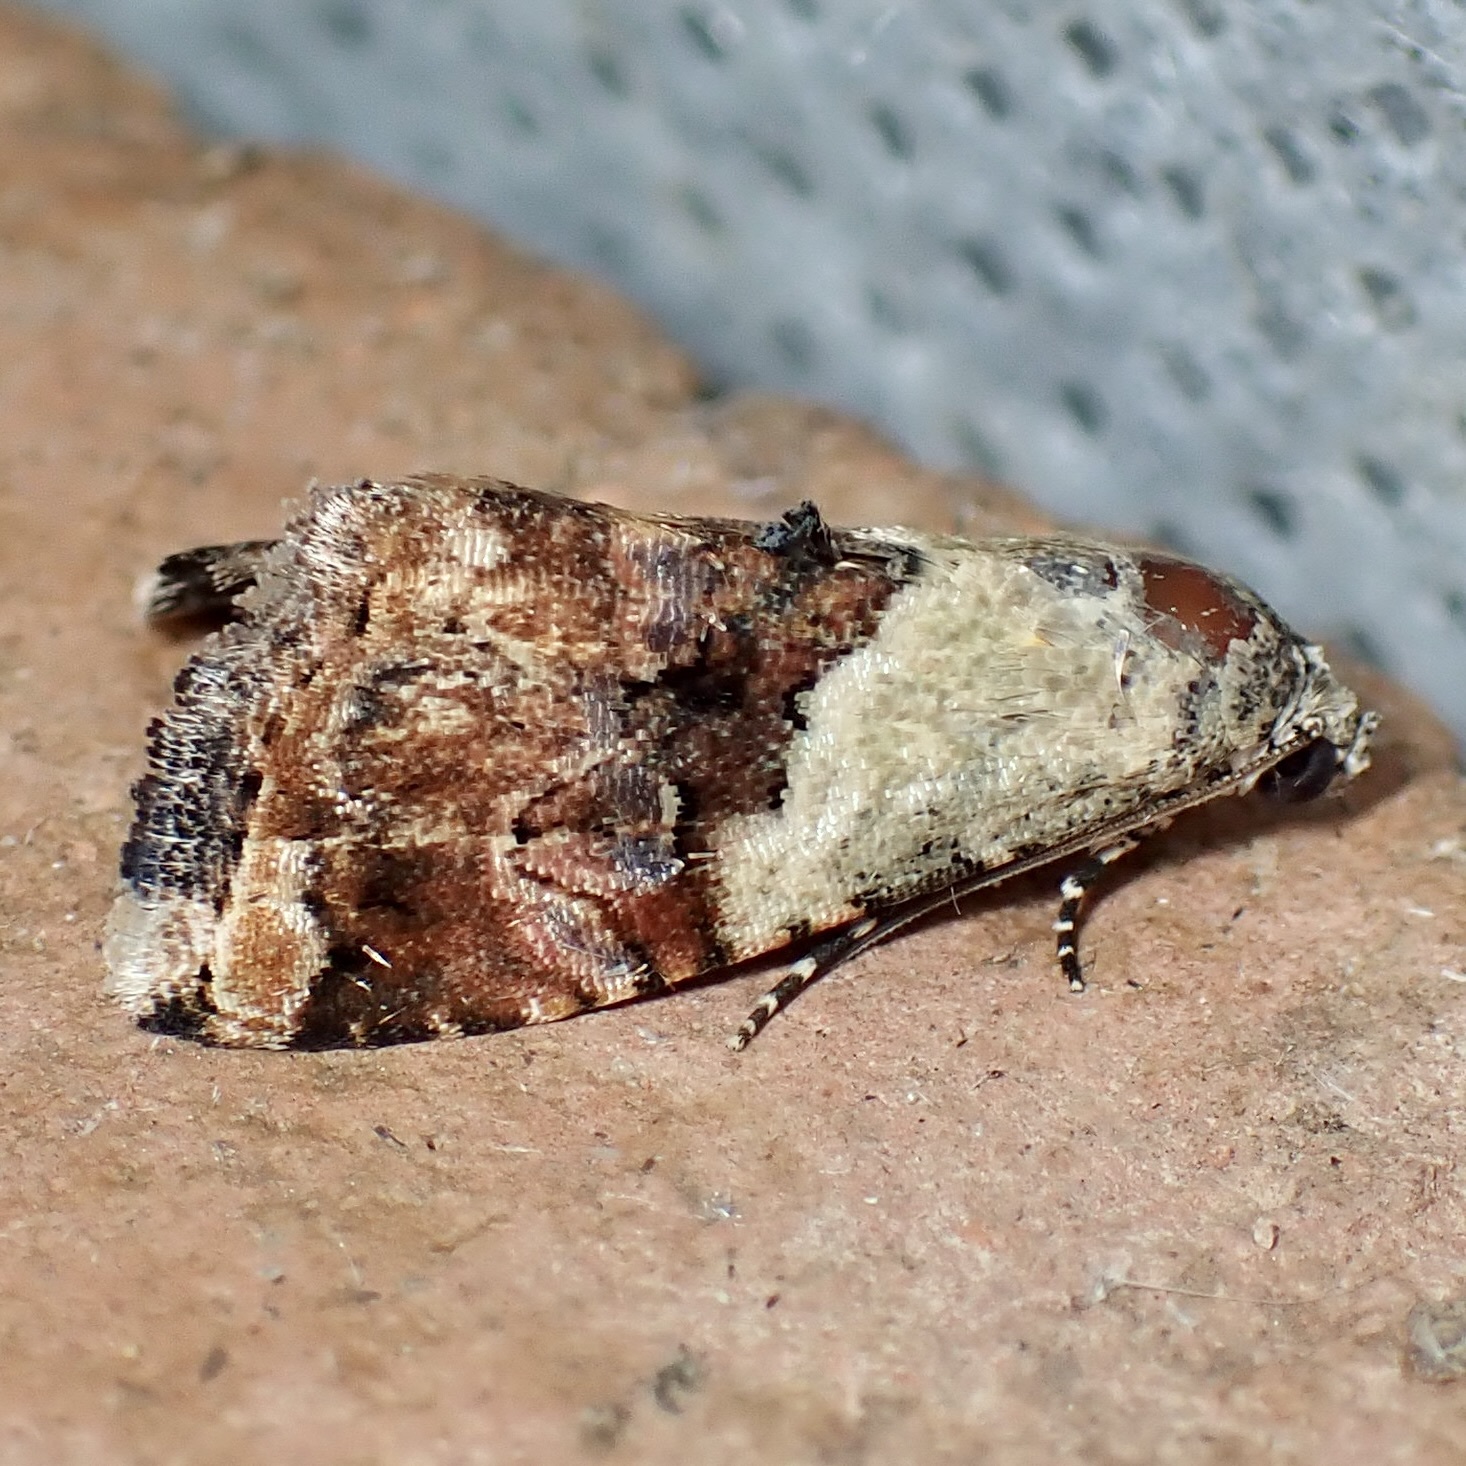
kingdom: Animalia
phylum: Arthropoda
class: Insecta
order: Lepidoptera
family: Noctuidae
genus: Tripudia
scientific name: Tripudia limbatus
